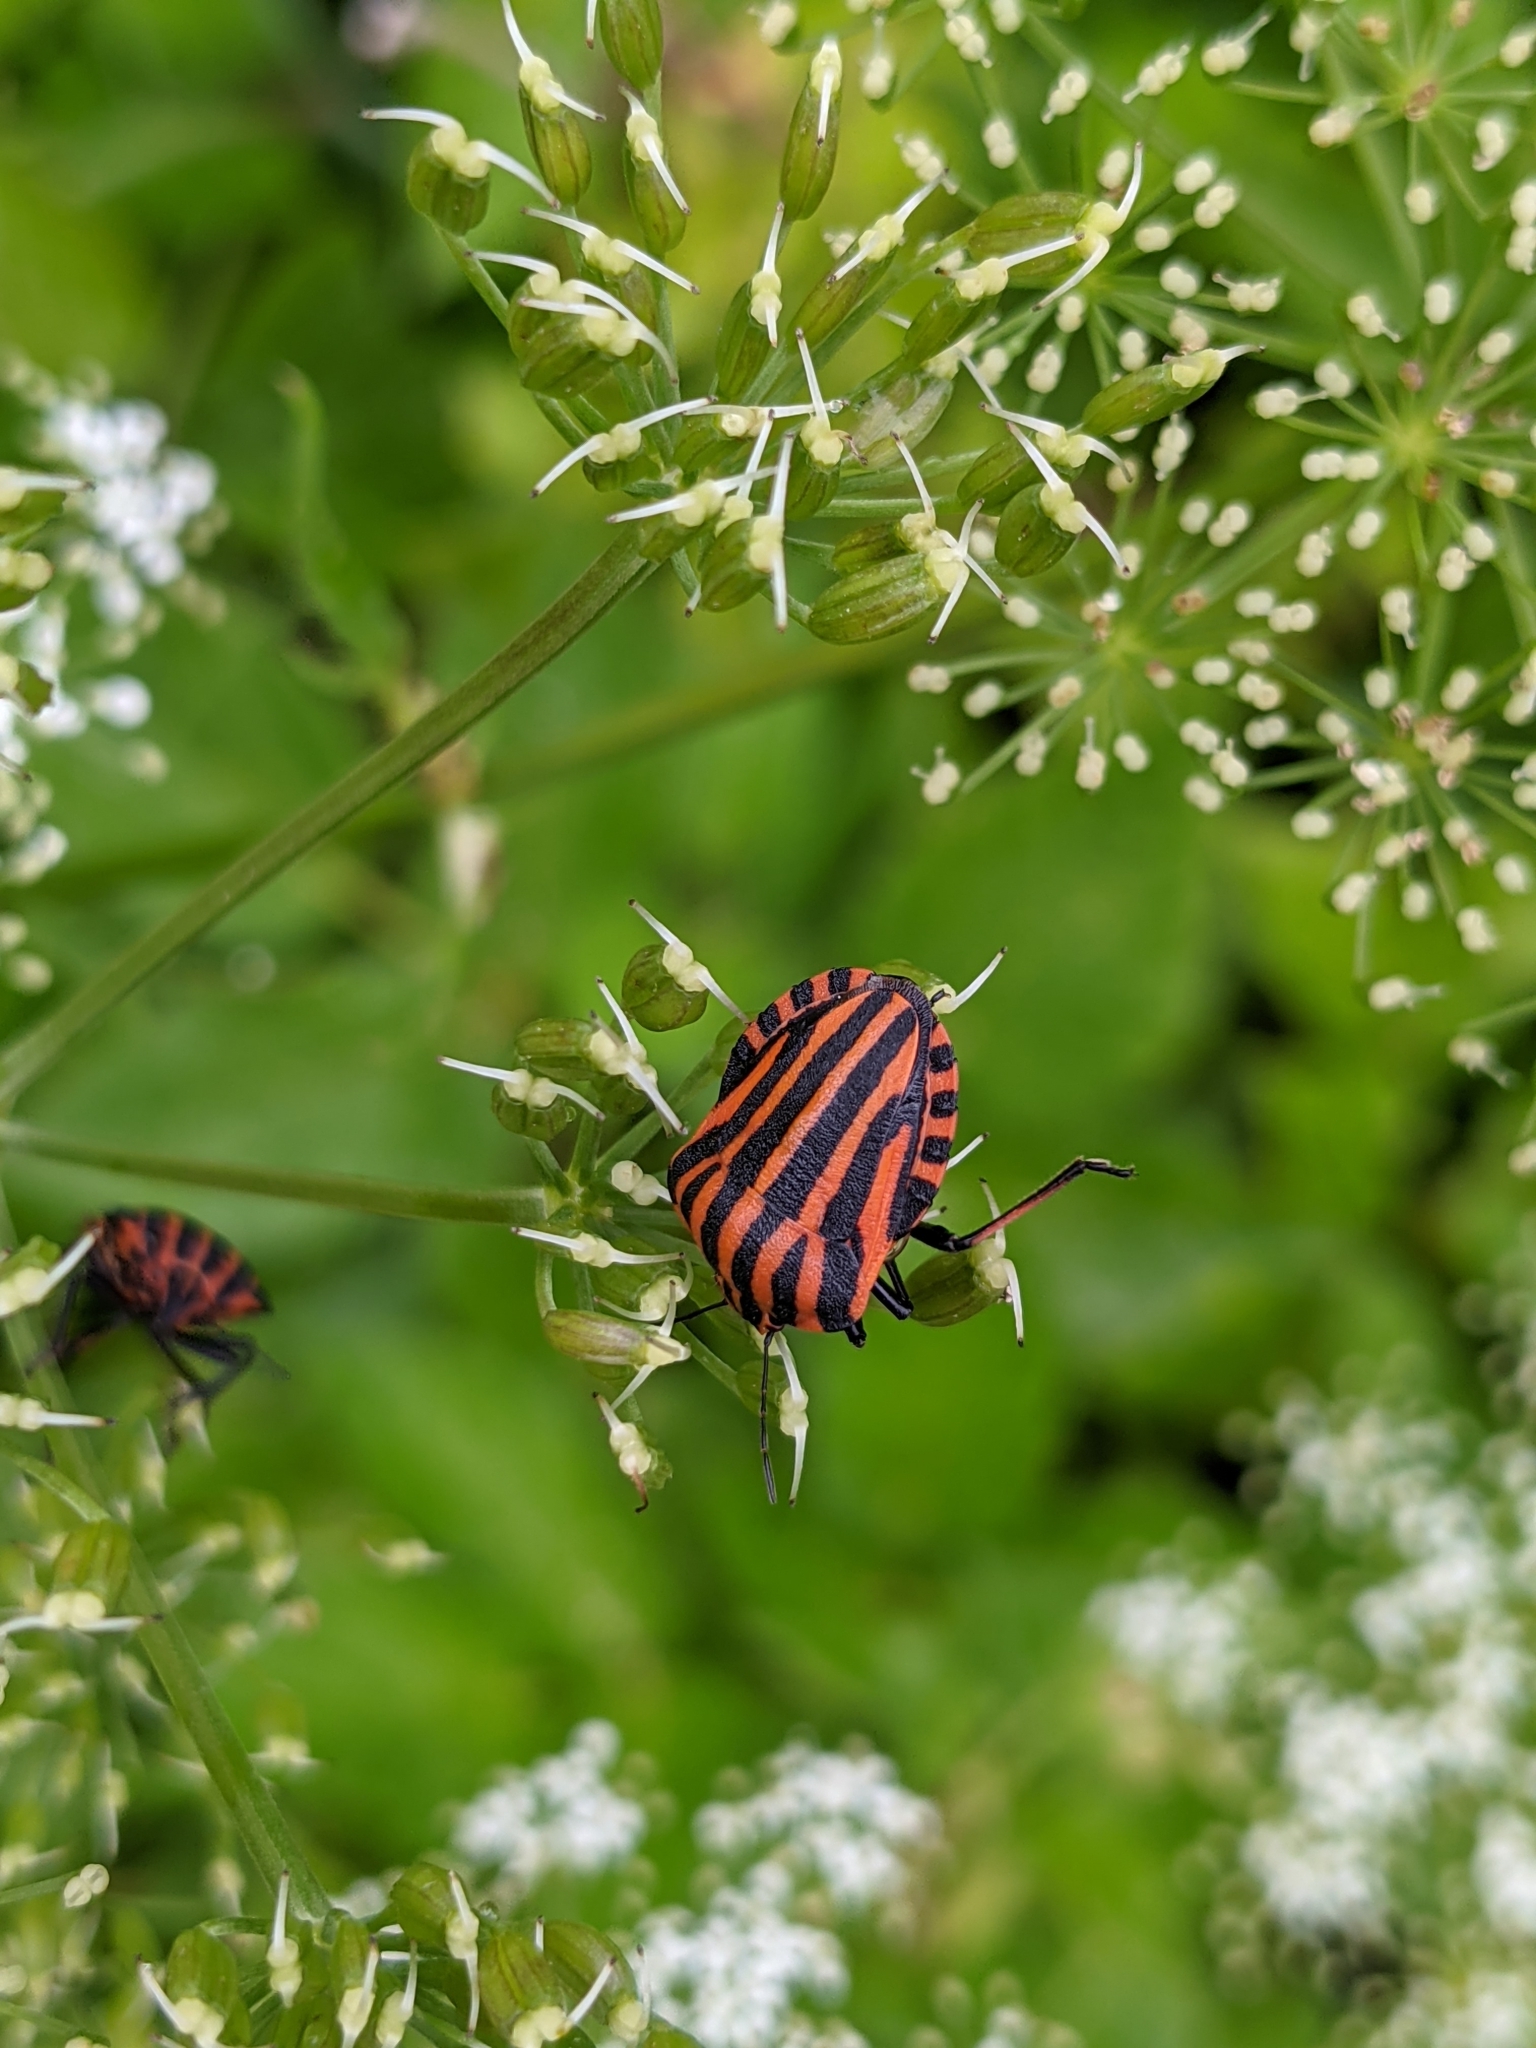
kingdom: Animalia
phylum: Arthropoda
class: Insecta
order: Hemiptera
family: Pentatomidae
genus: Graphosoma
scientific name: Graphosoma italicum
